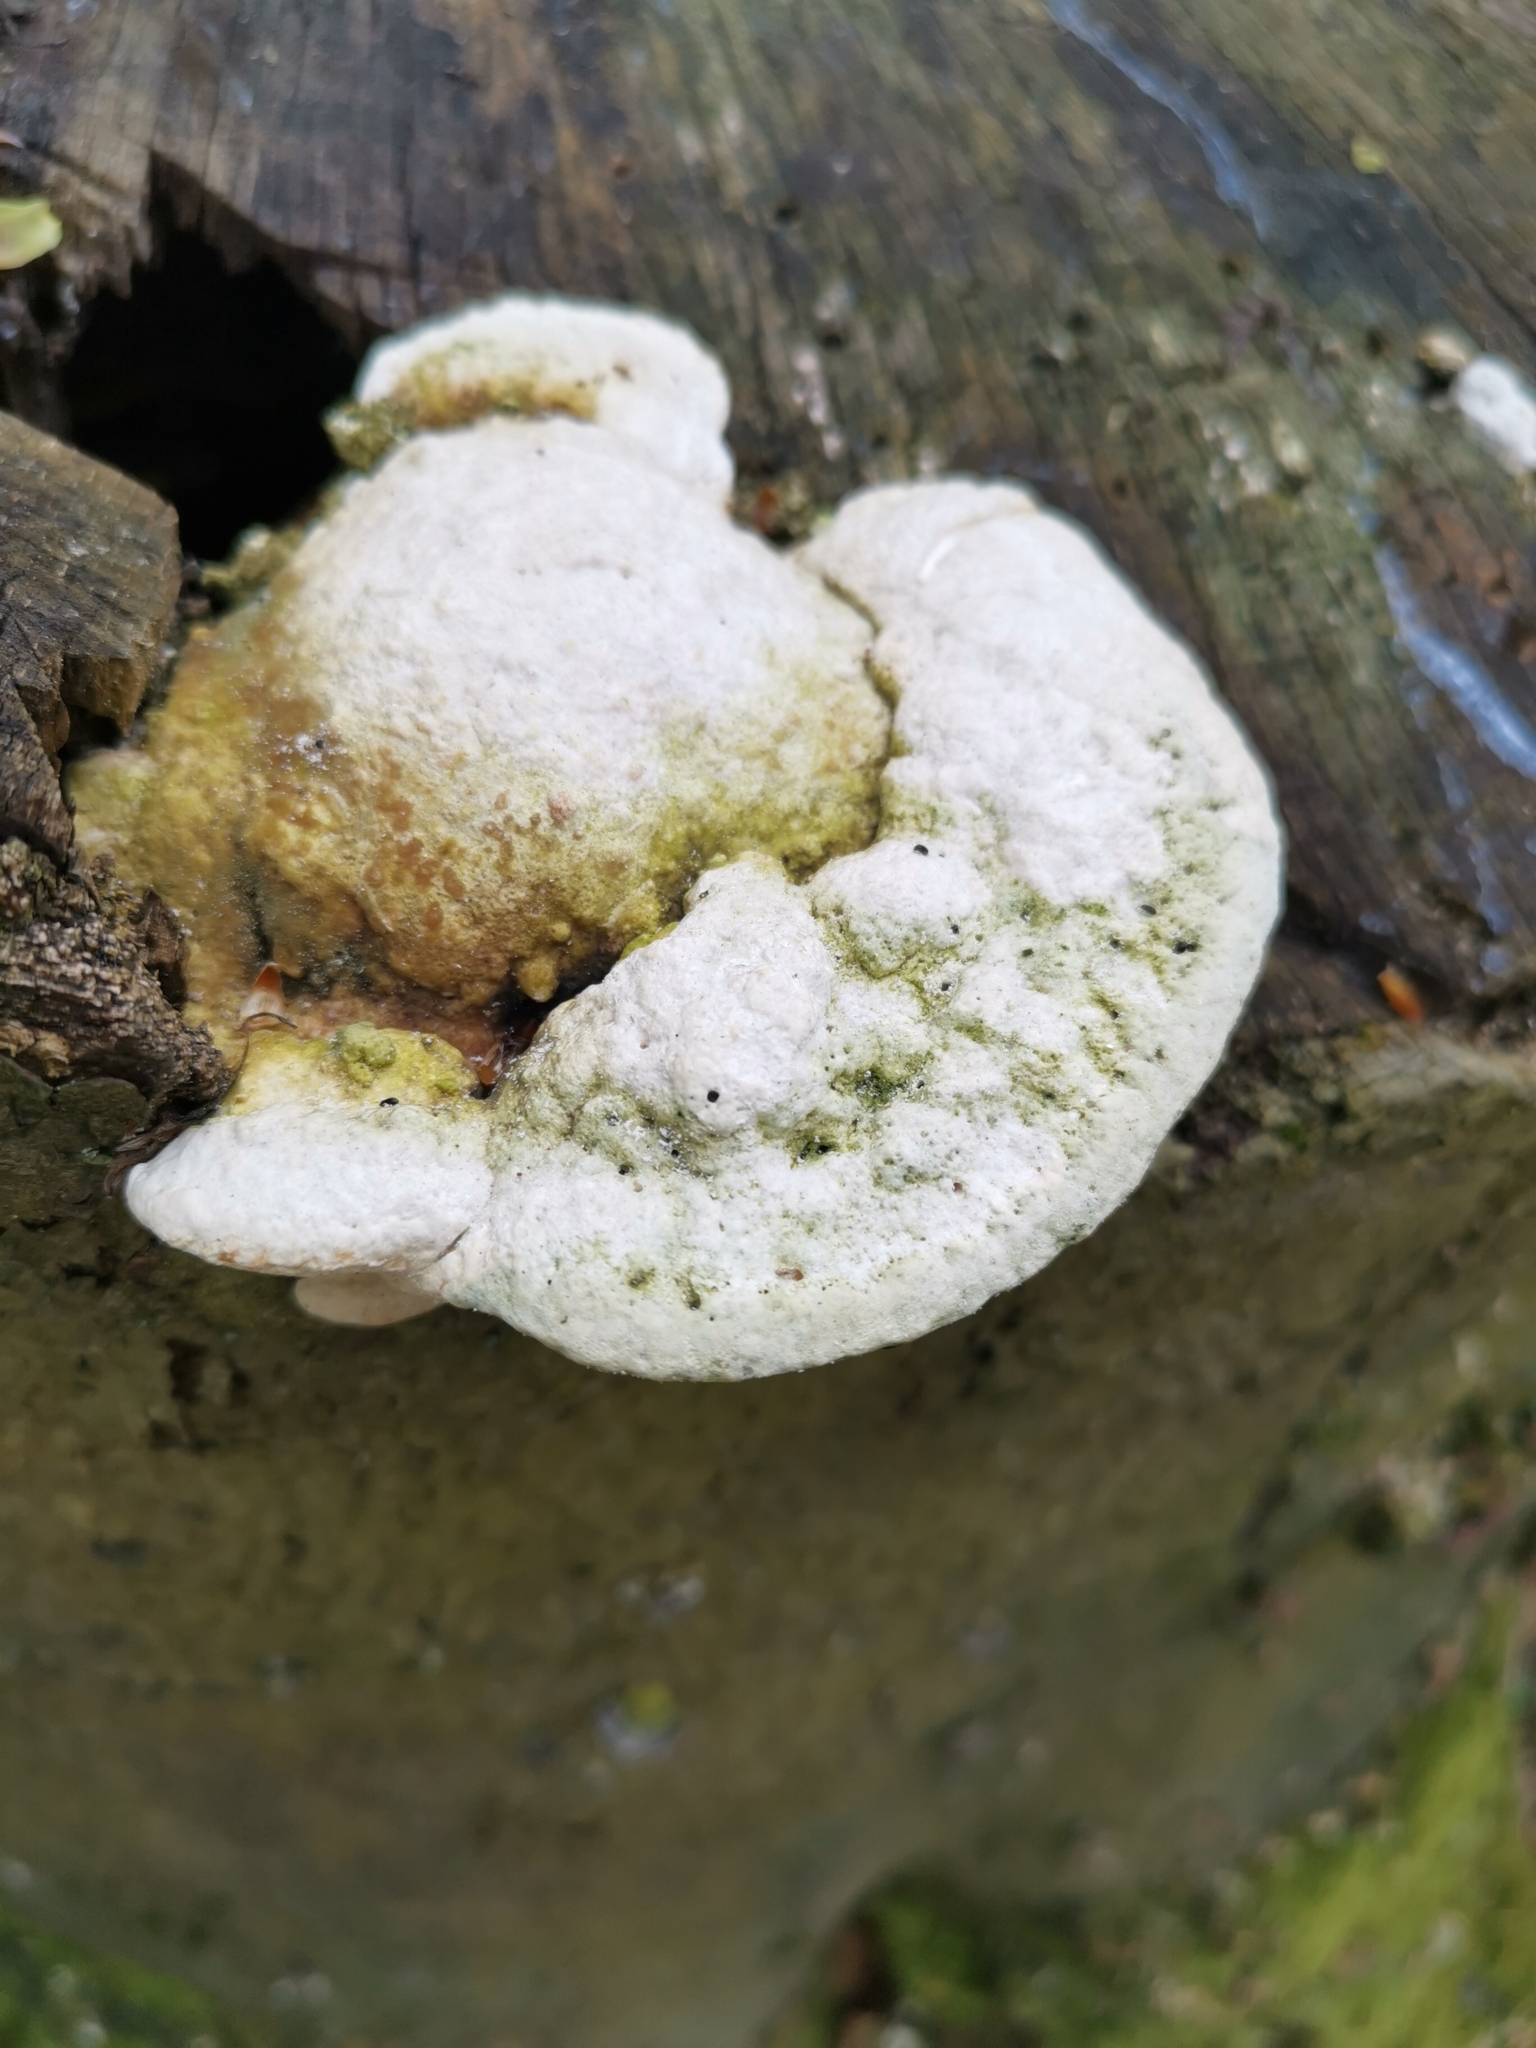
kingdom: Fungi
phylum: Basidiomycota
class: Agaricomycetes
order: Polyporales
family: Polyporaceae
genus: Trametes
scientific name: Trametes gibbosa
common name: Lumpy bracket
